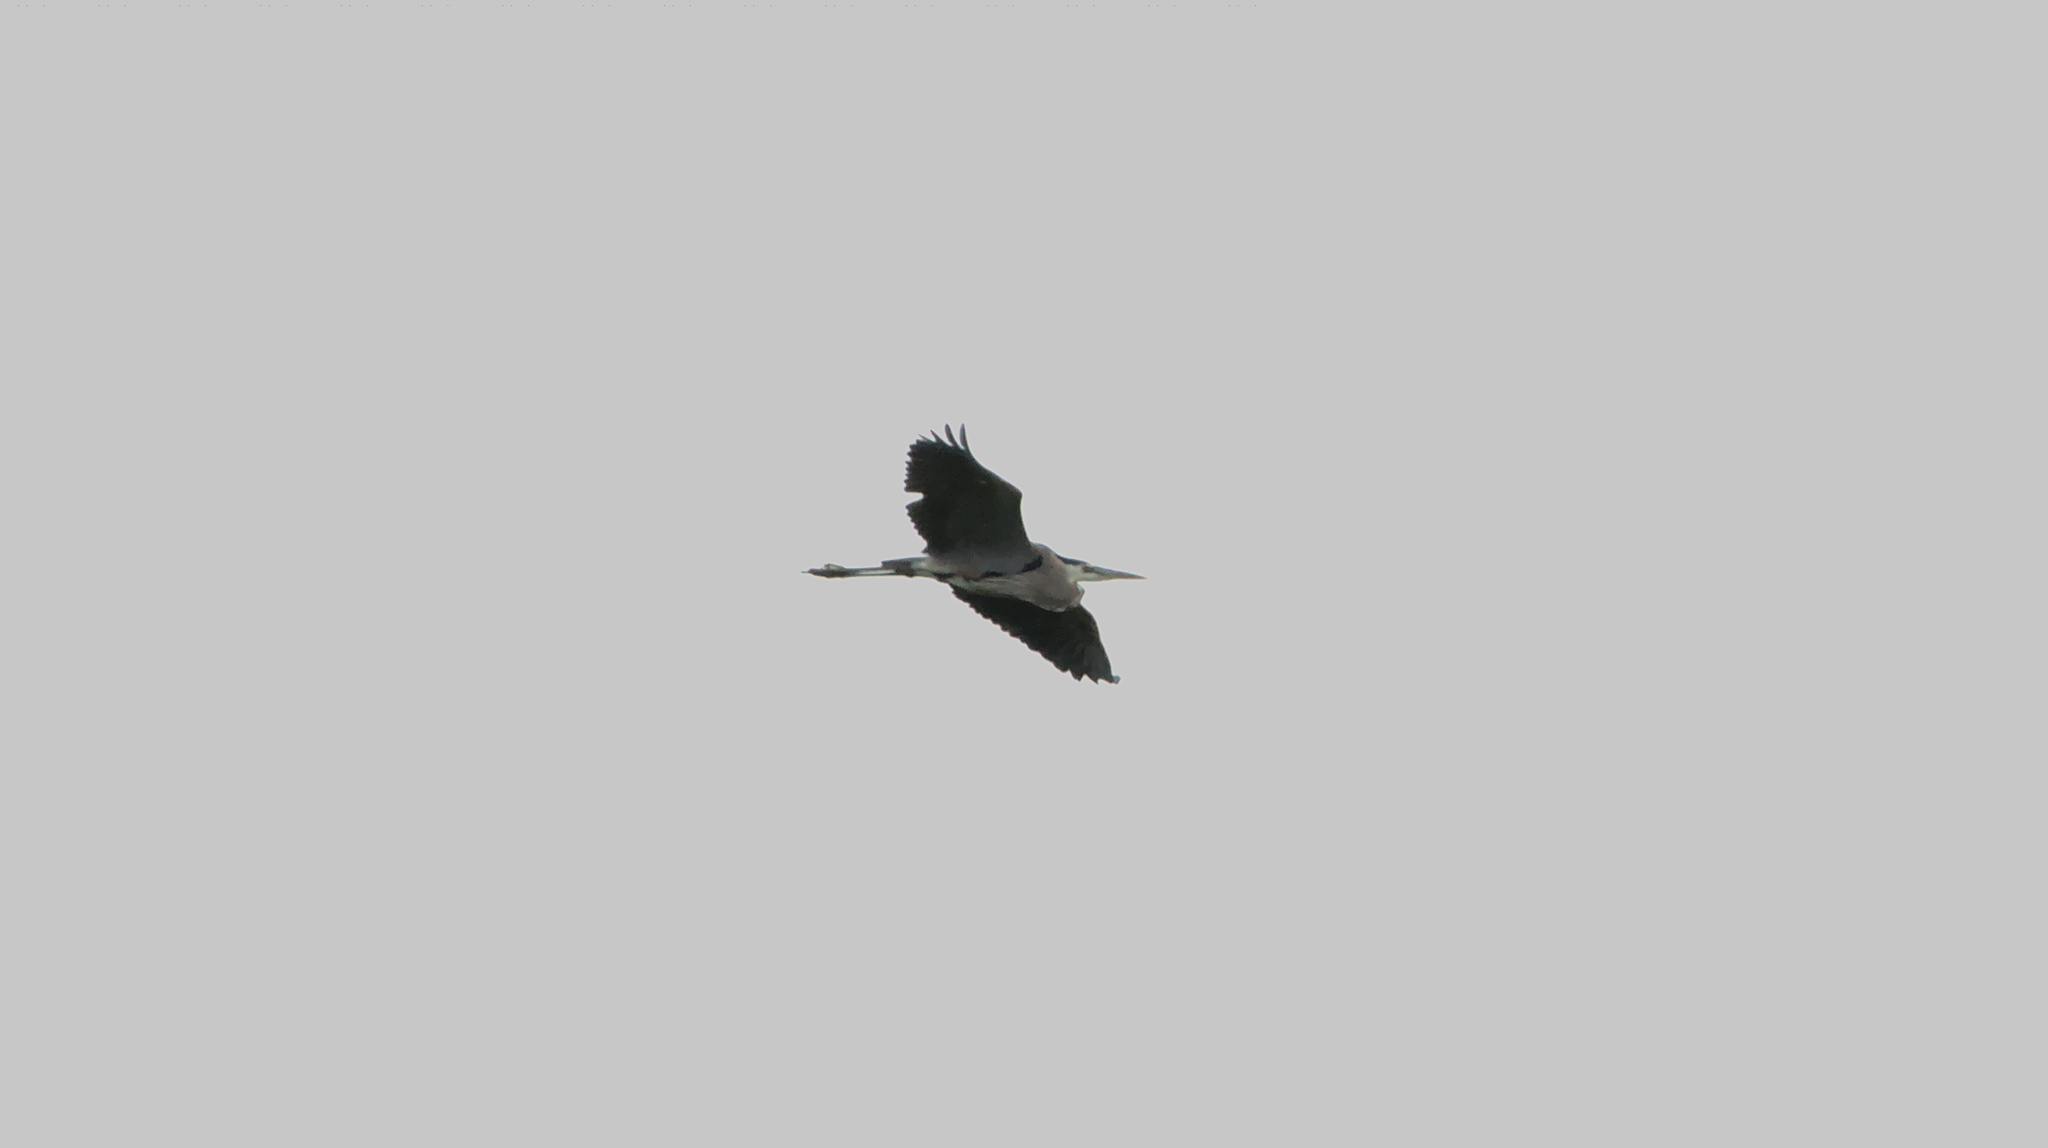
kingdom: Animalia
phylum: Chordata
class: Aves
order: Pelecaniformes
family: Ardeidae
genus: Ardea
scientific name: Ardea herodias
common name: Great blue heron
